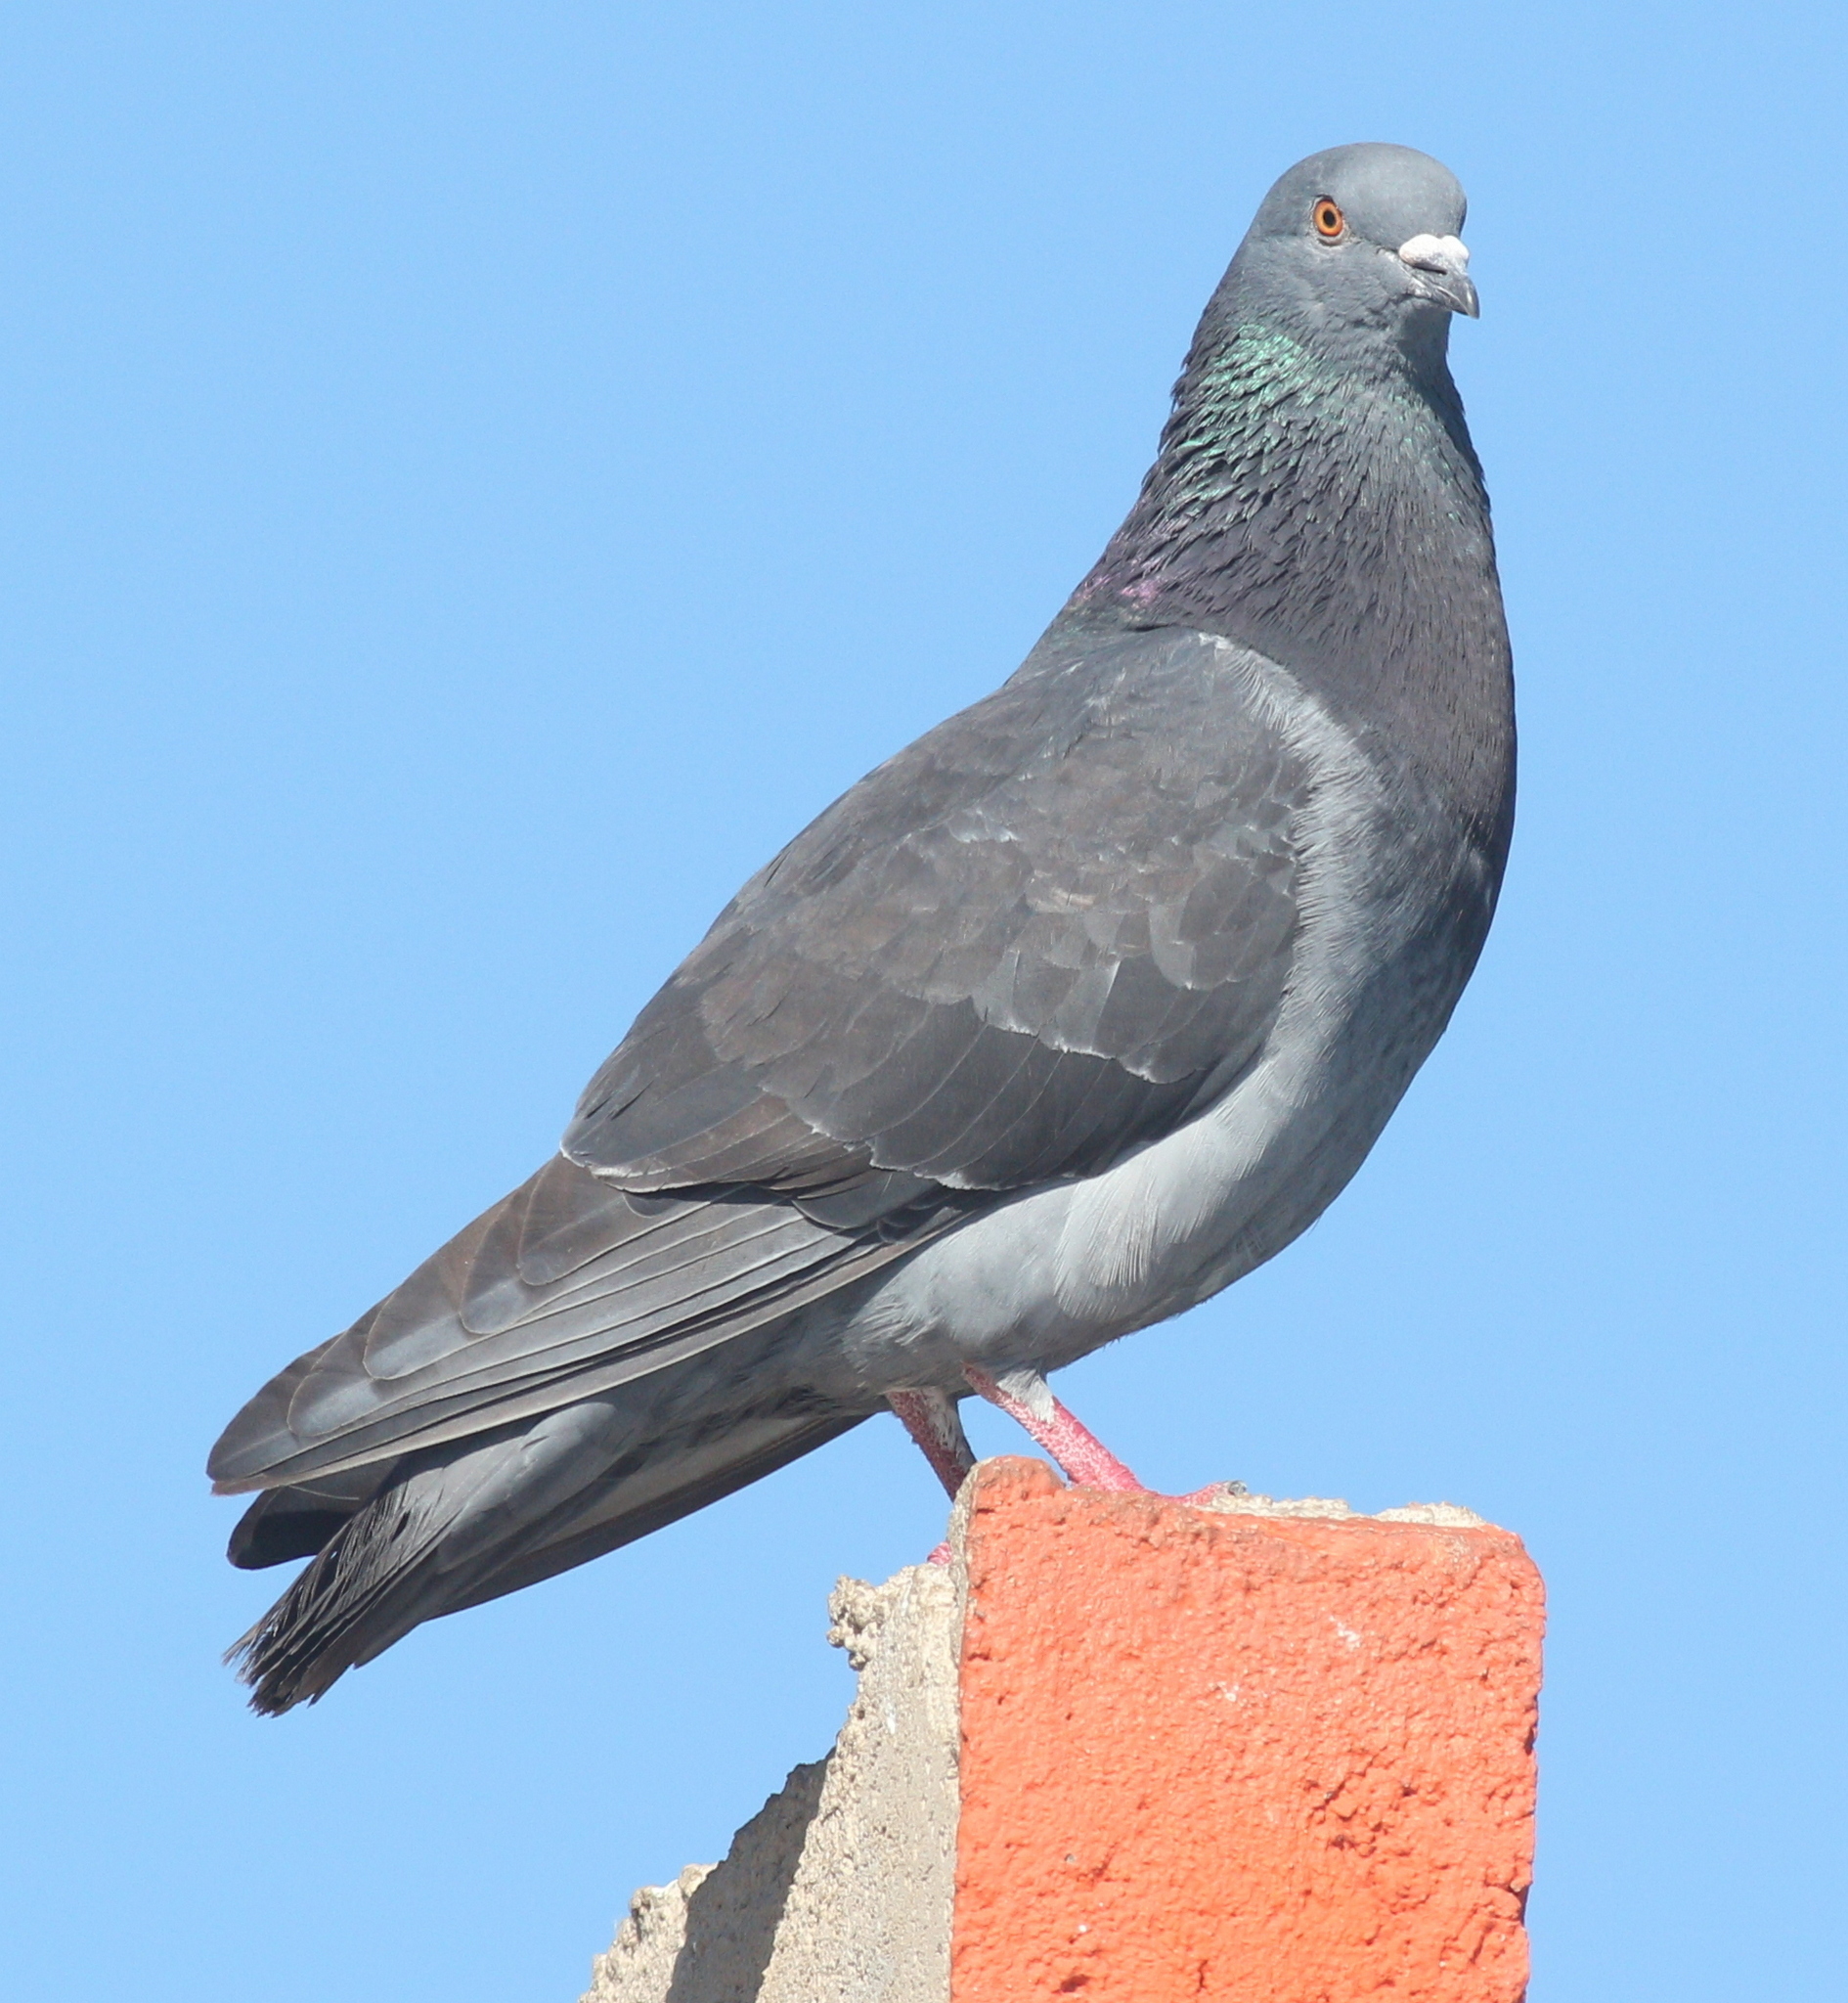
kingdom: Animalia
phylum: Chordata
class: Aves
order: Columbiformes
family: Columbidae
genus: Columba
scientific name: Columba livia
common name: Rock pigeon
